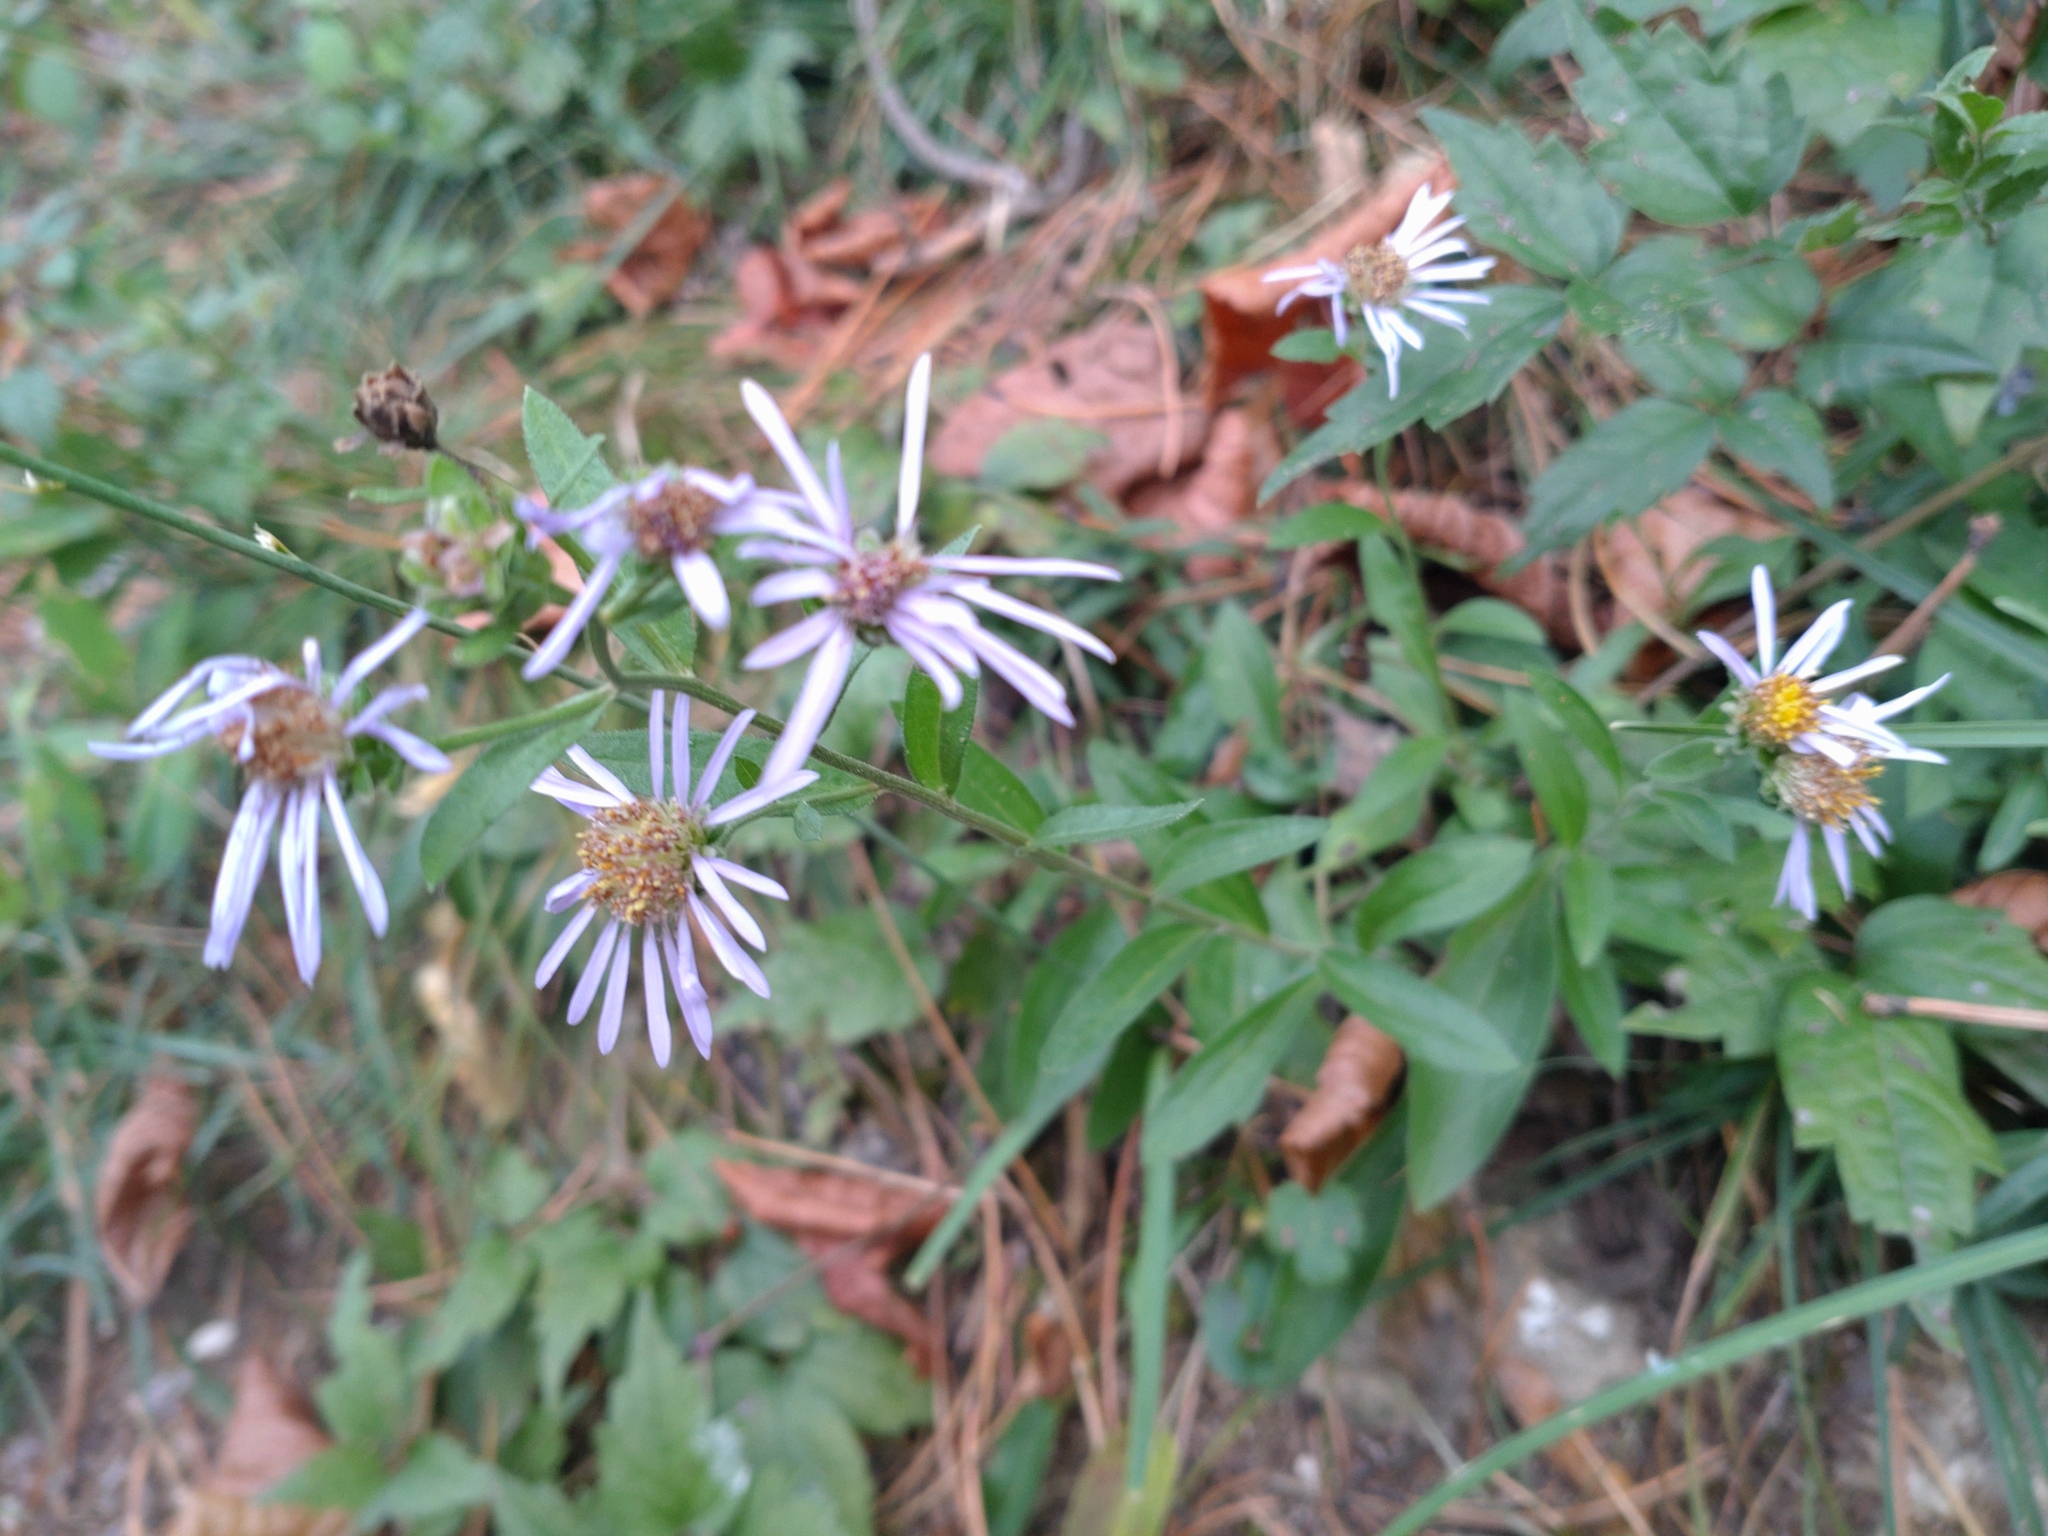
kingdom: Plantae
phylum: Tracheophyta
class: Magnoliopsida
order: Asterales
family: Asteraceae
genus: Aster
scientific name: Aster amellus
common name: European michaelmas daisy
